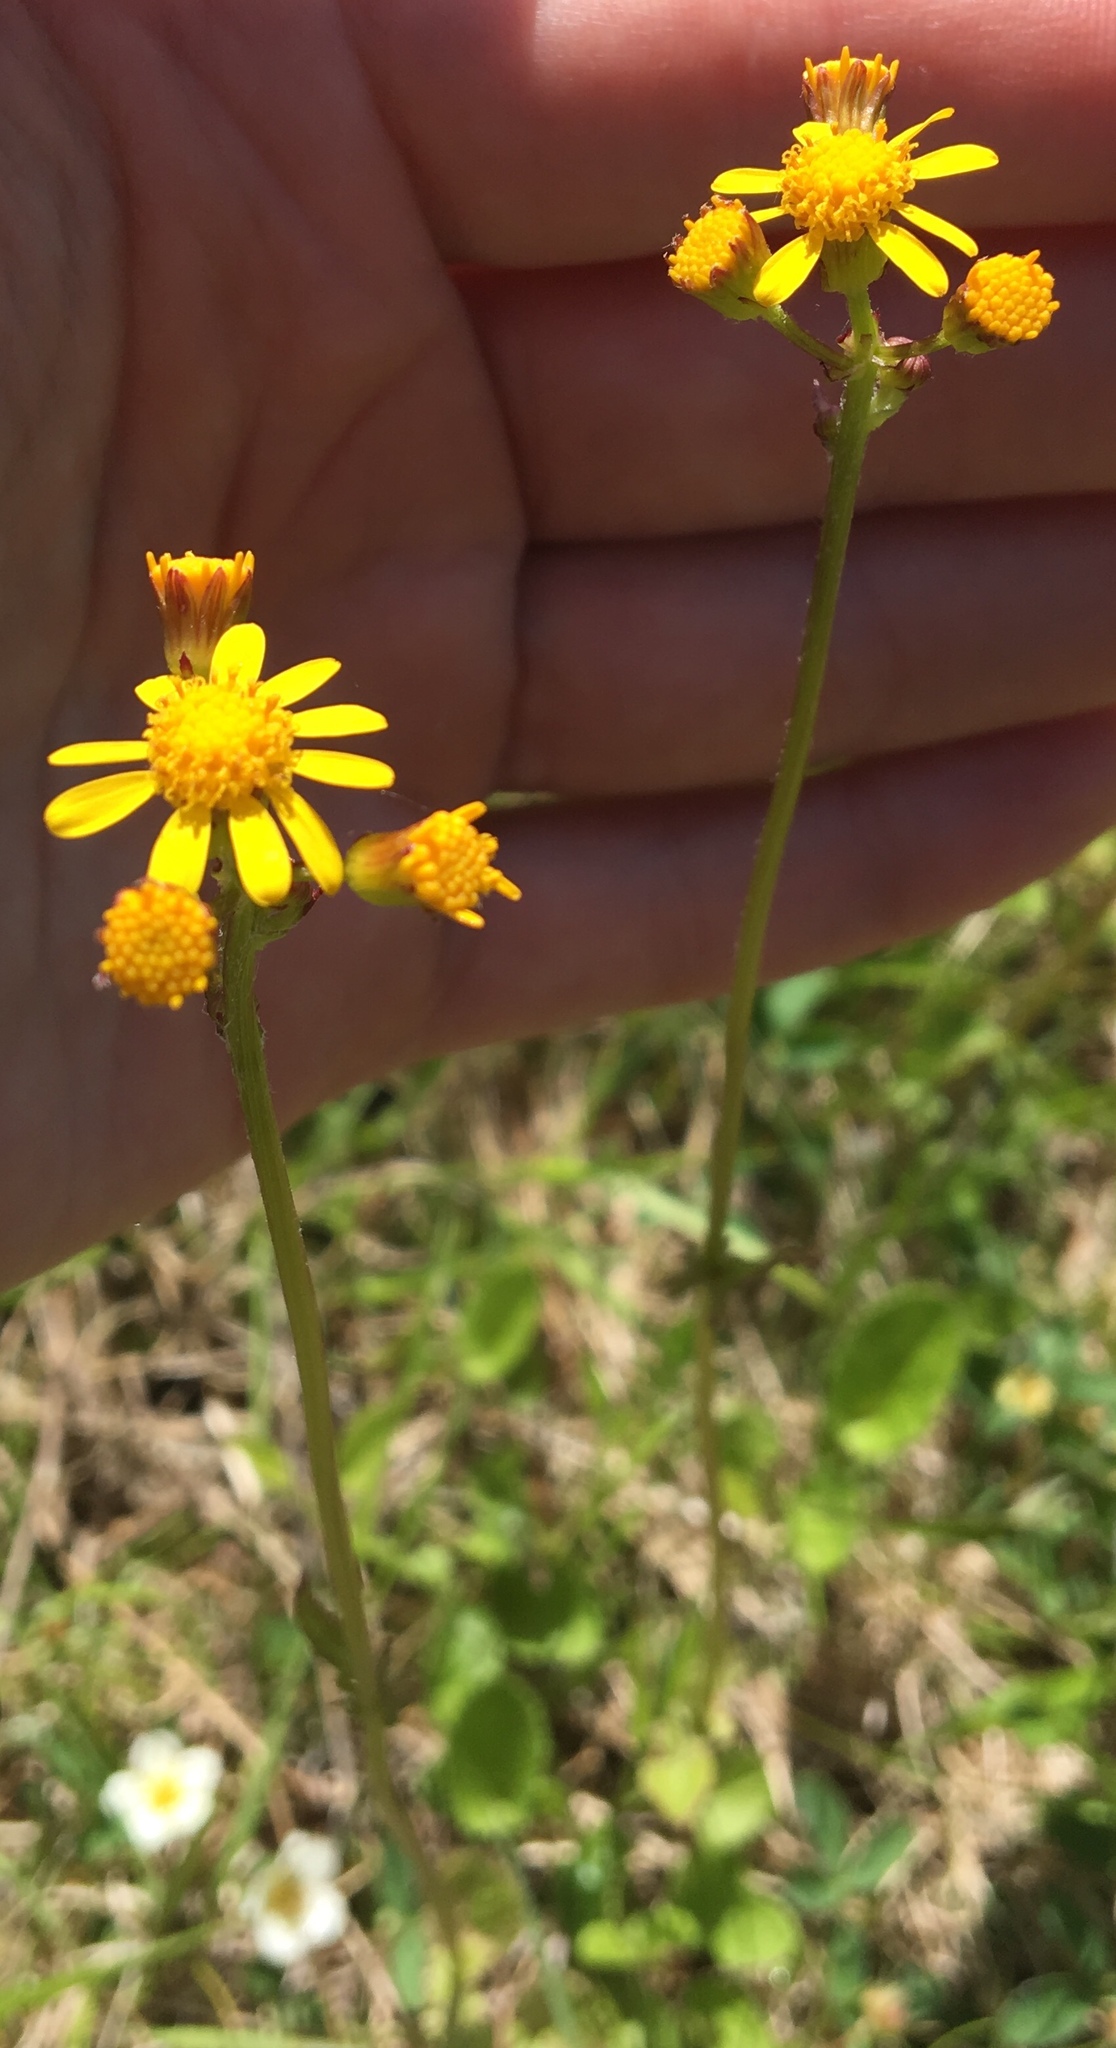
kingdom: Plantae
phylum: Tracheophyta
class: Magnoliopsida
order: Asterales
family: Asteraceae
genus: Packera
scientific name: Packera obovata
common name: Round-leaf ragwort
